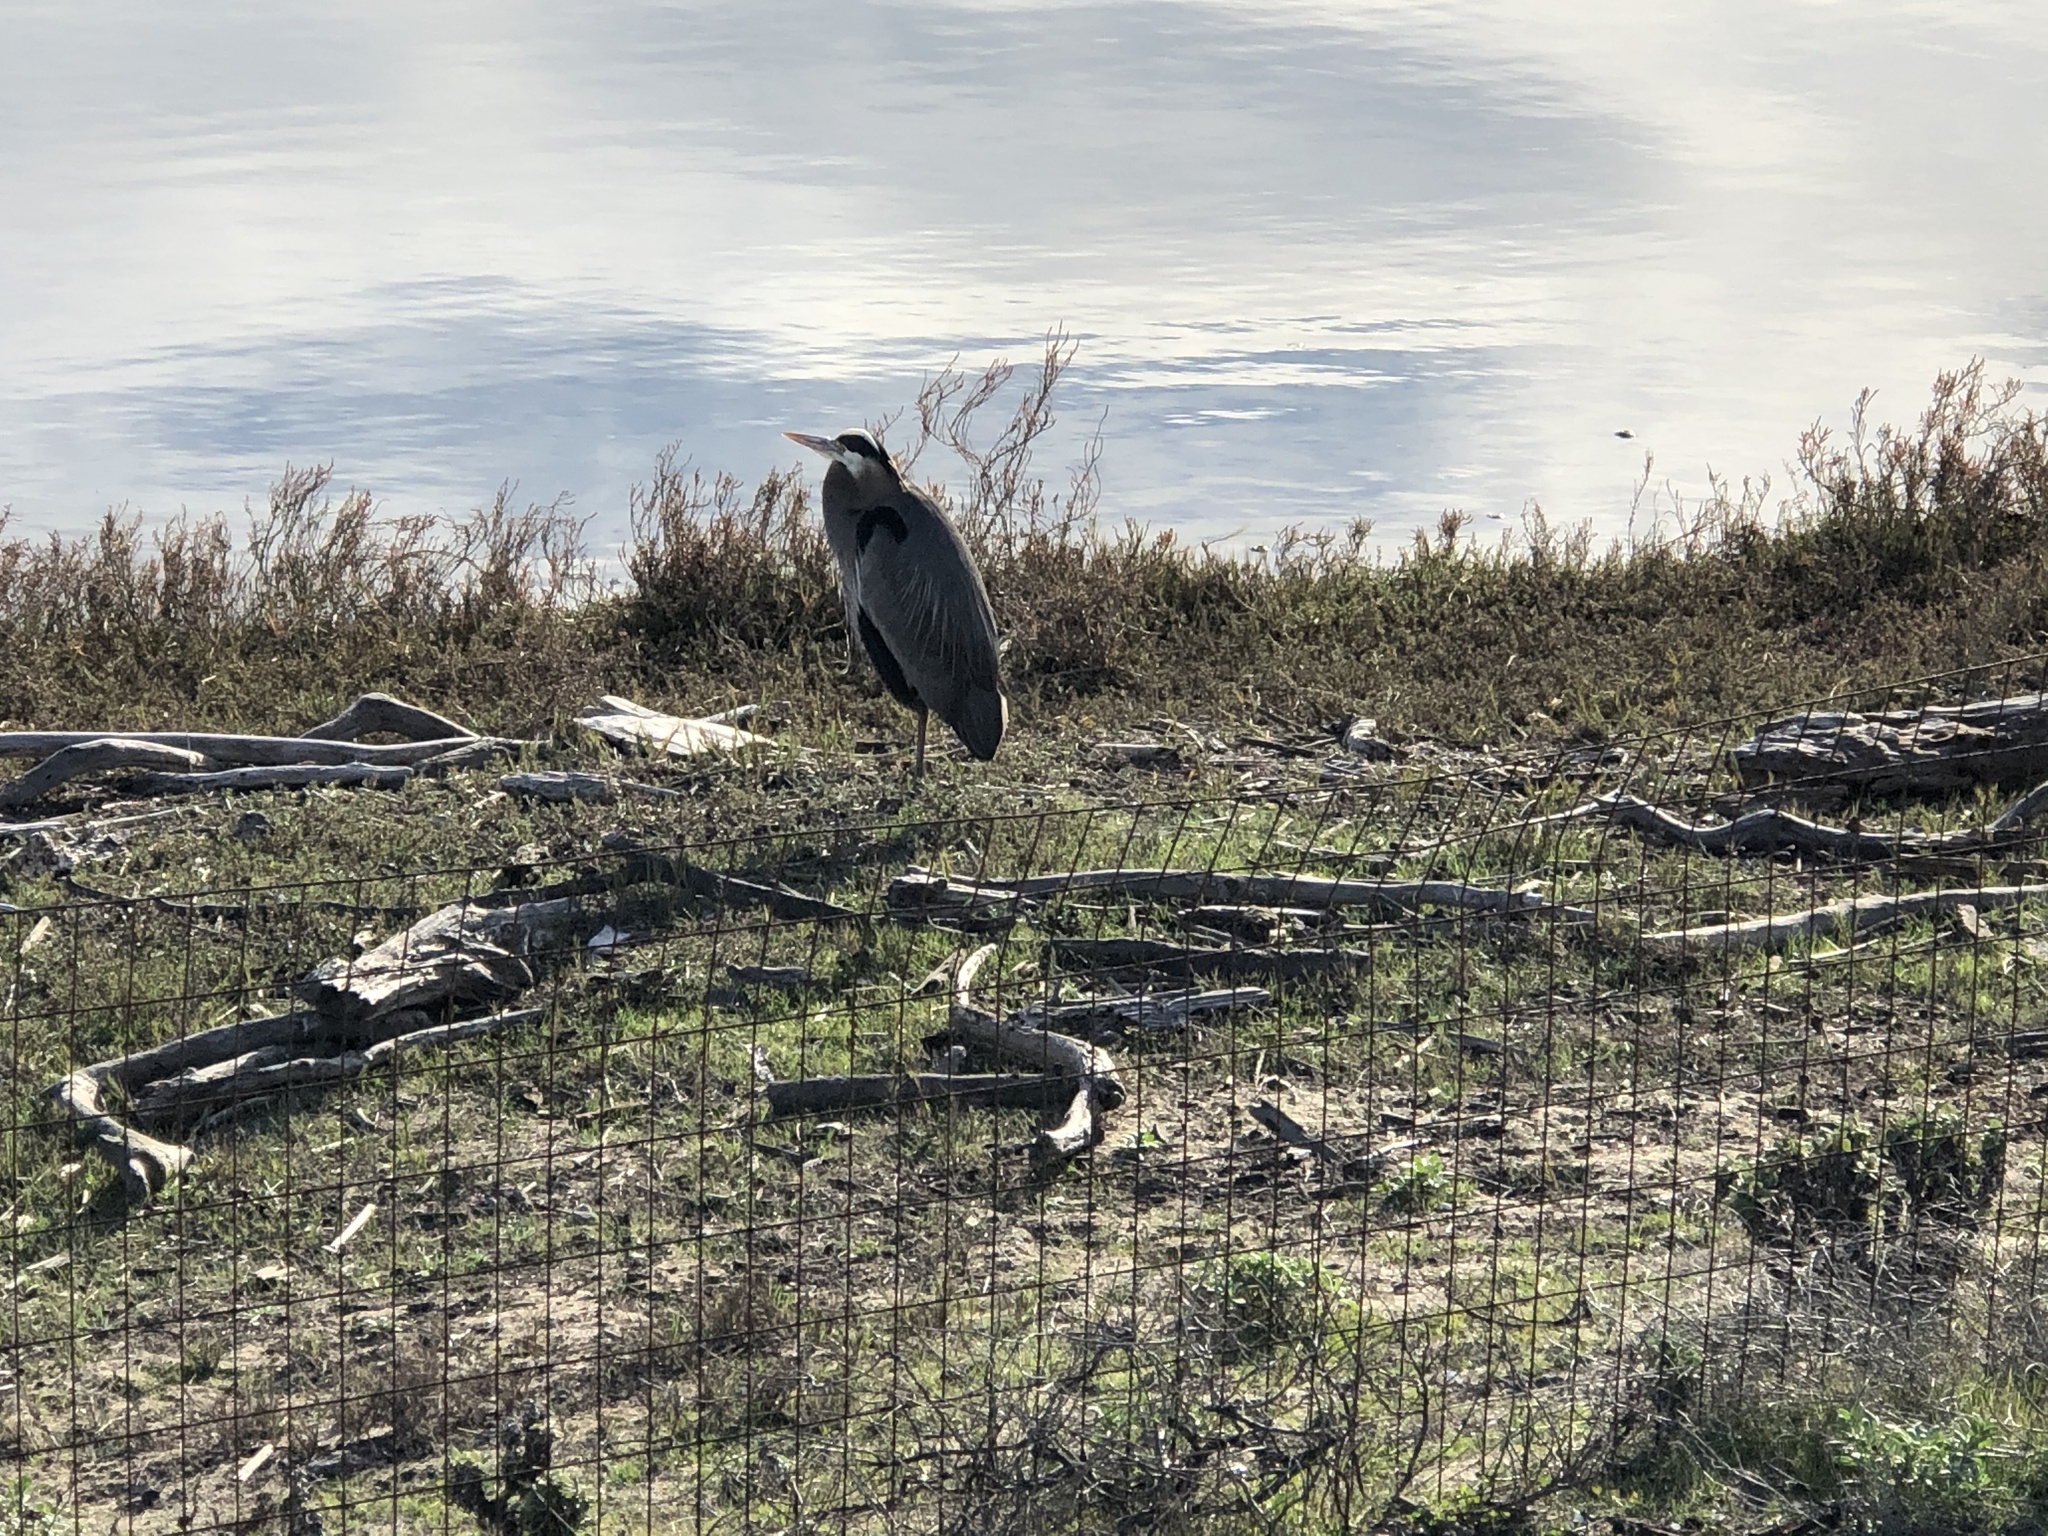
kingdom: Animalia
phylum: Chordata
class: Aves
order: Pelecaniformes
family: Ardeidae
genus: Ardea
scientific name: Ardea herodias
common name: Great blue heron
